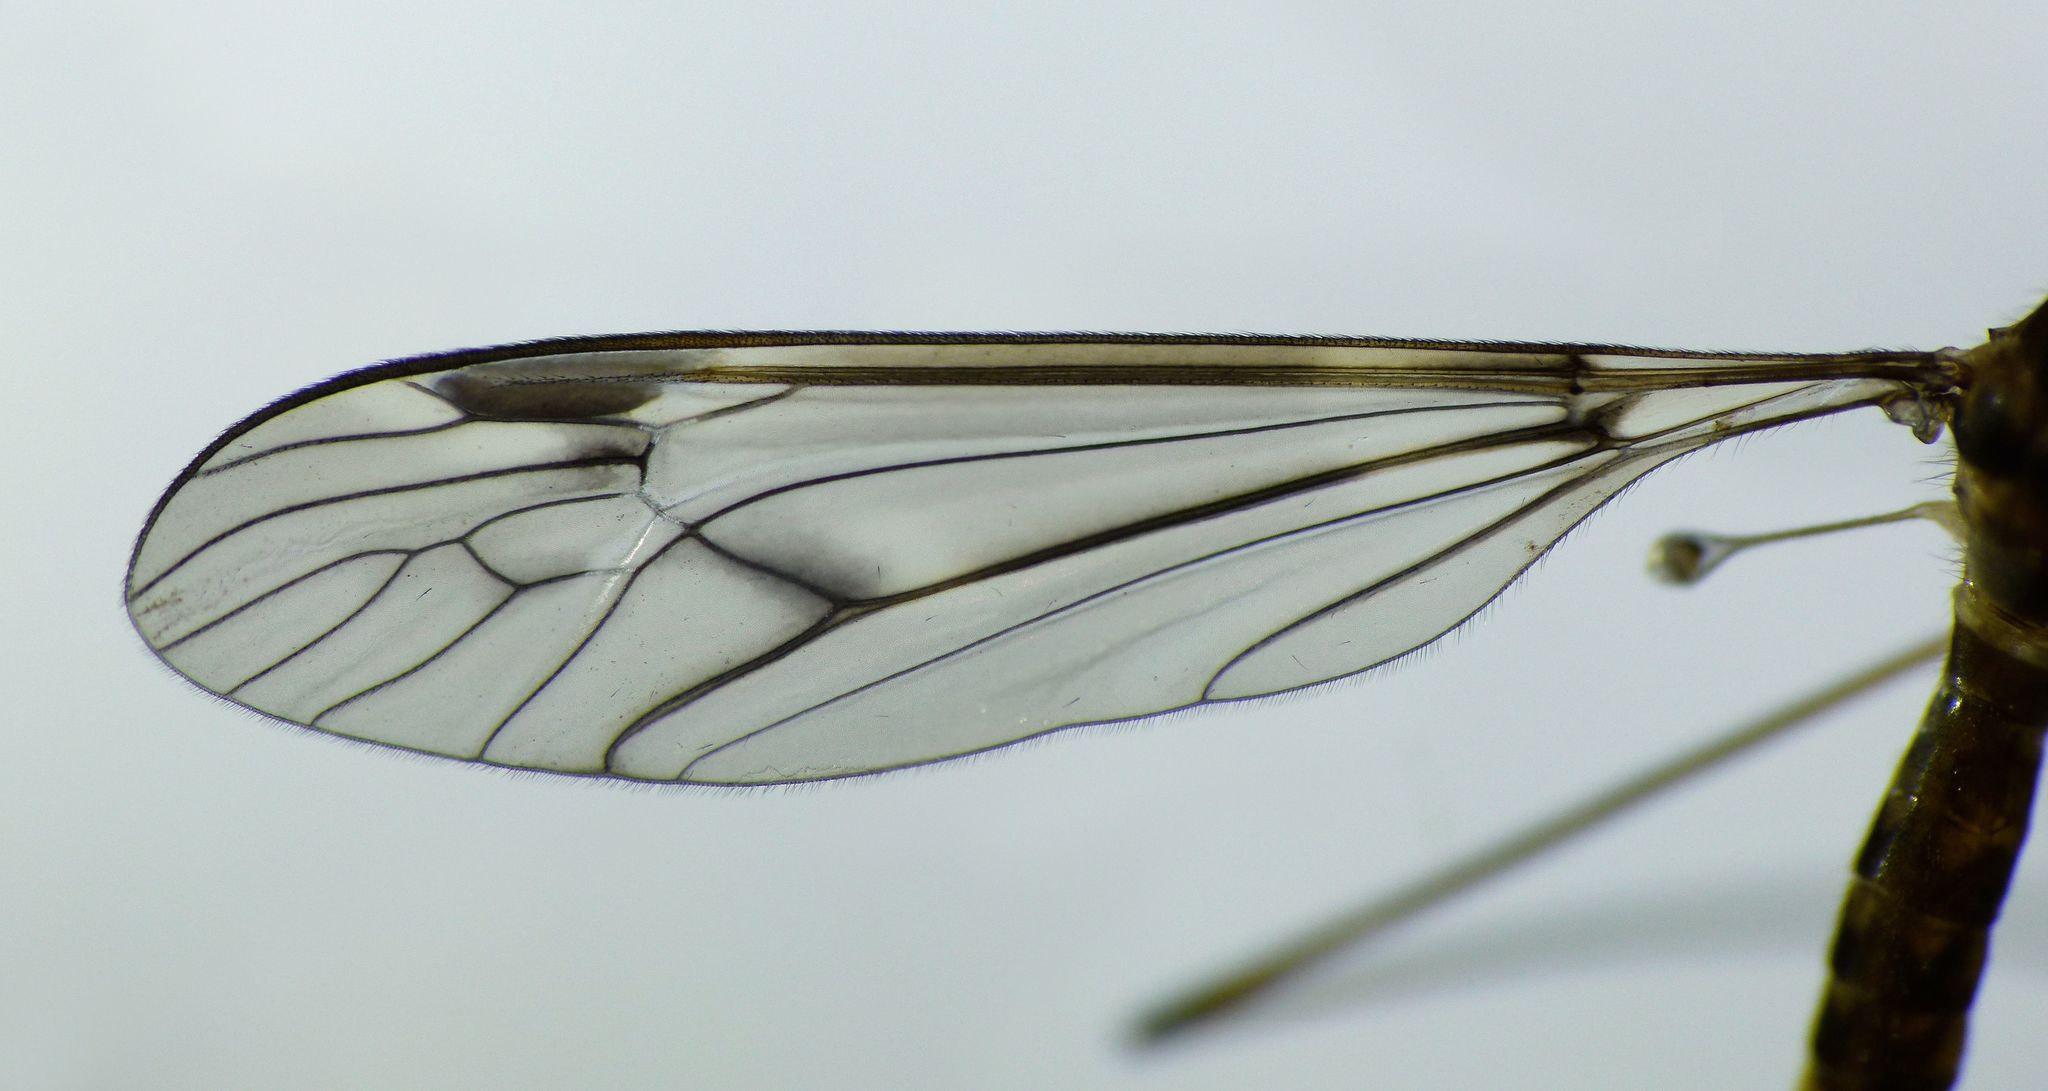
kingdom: Animalia
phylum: Arthropoda
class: Insecta
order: Diptera
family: Tipulidae
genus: Leptotarsus
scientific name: Leptotarsus cubitalis
